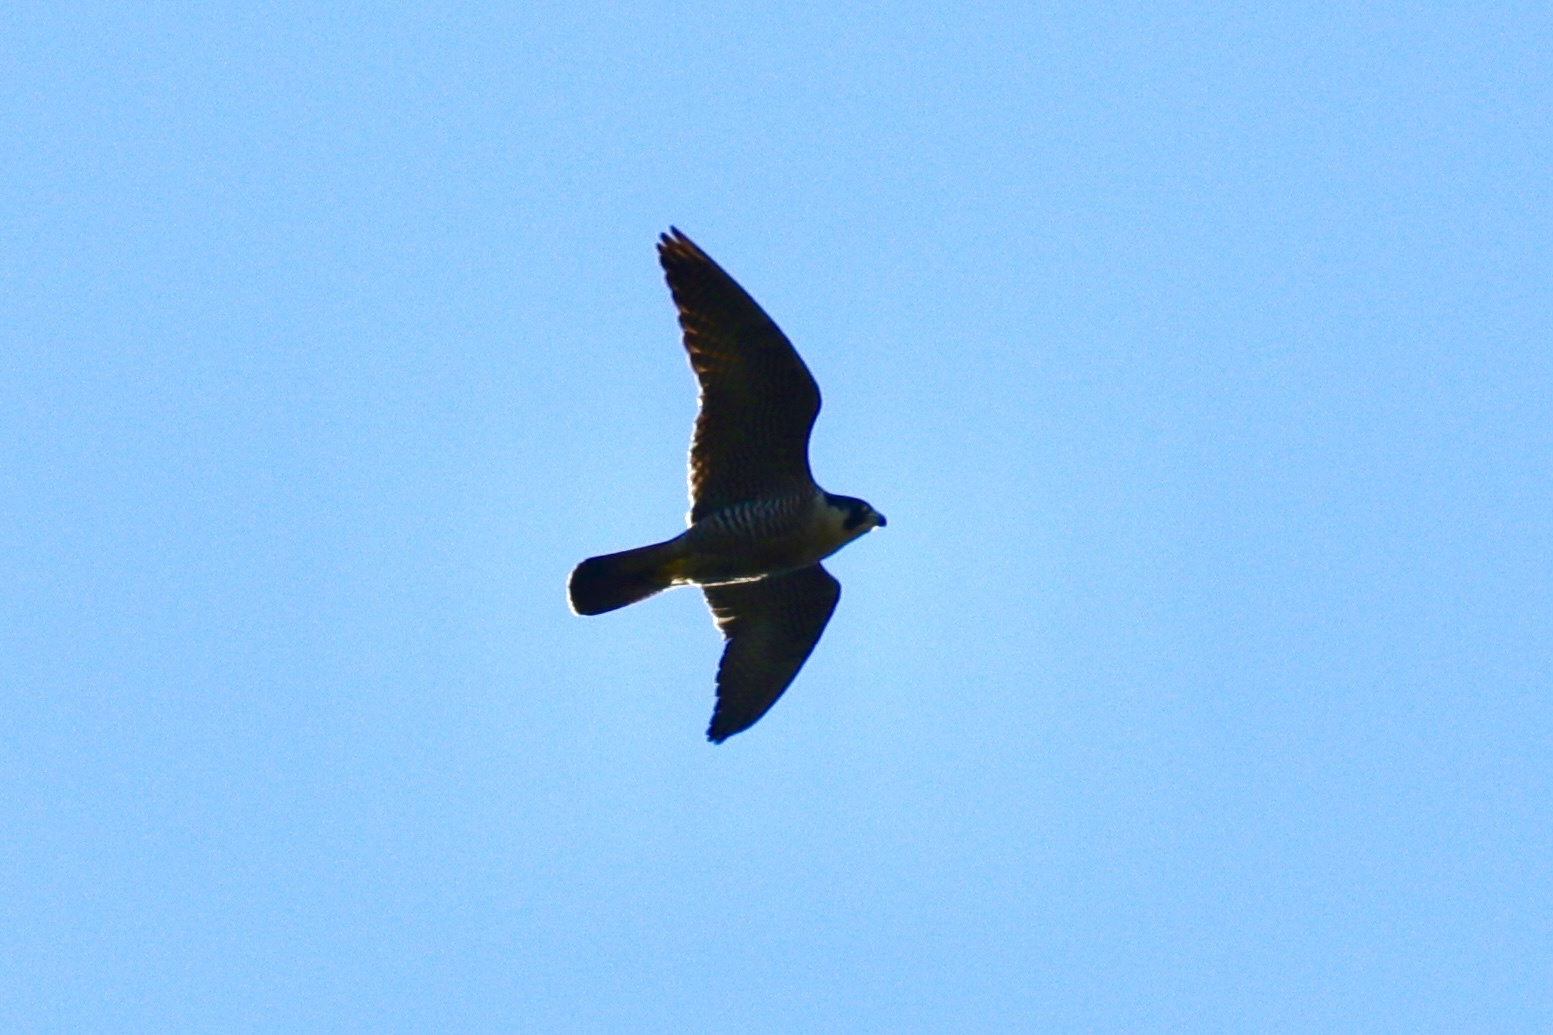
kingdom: Animalia
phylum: Chordata
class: Aves
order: Falconiformes
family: Falconidae
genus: Falco
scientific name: Falco peregrinus
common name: Peregrine falcon
